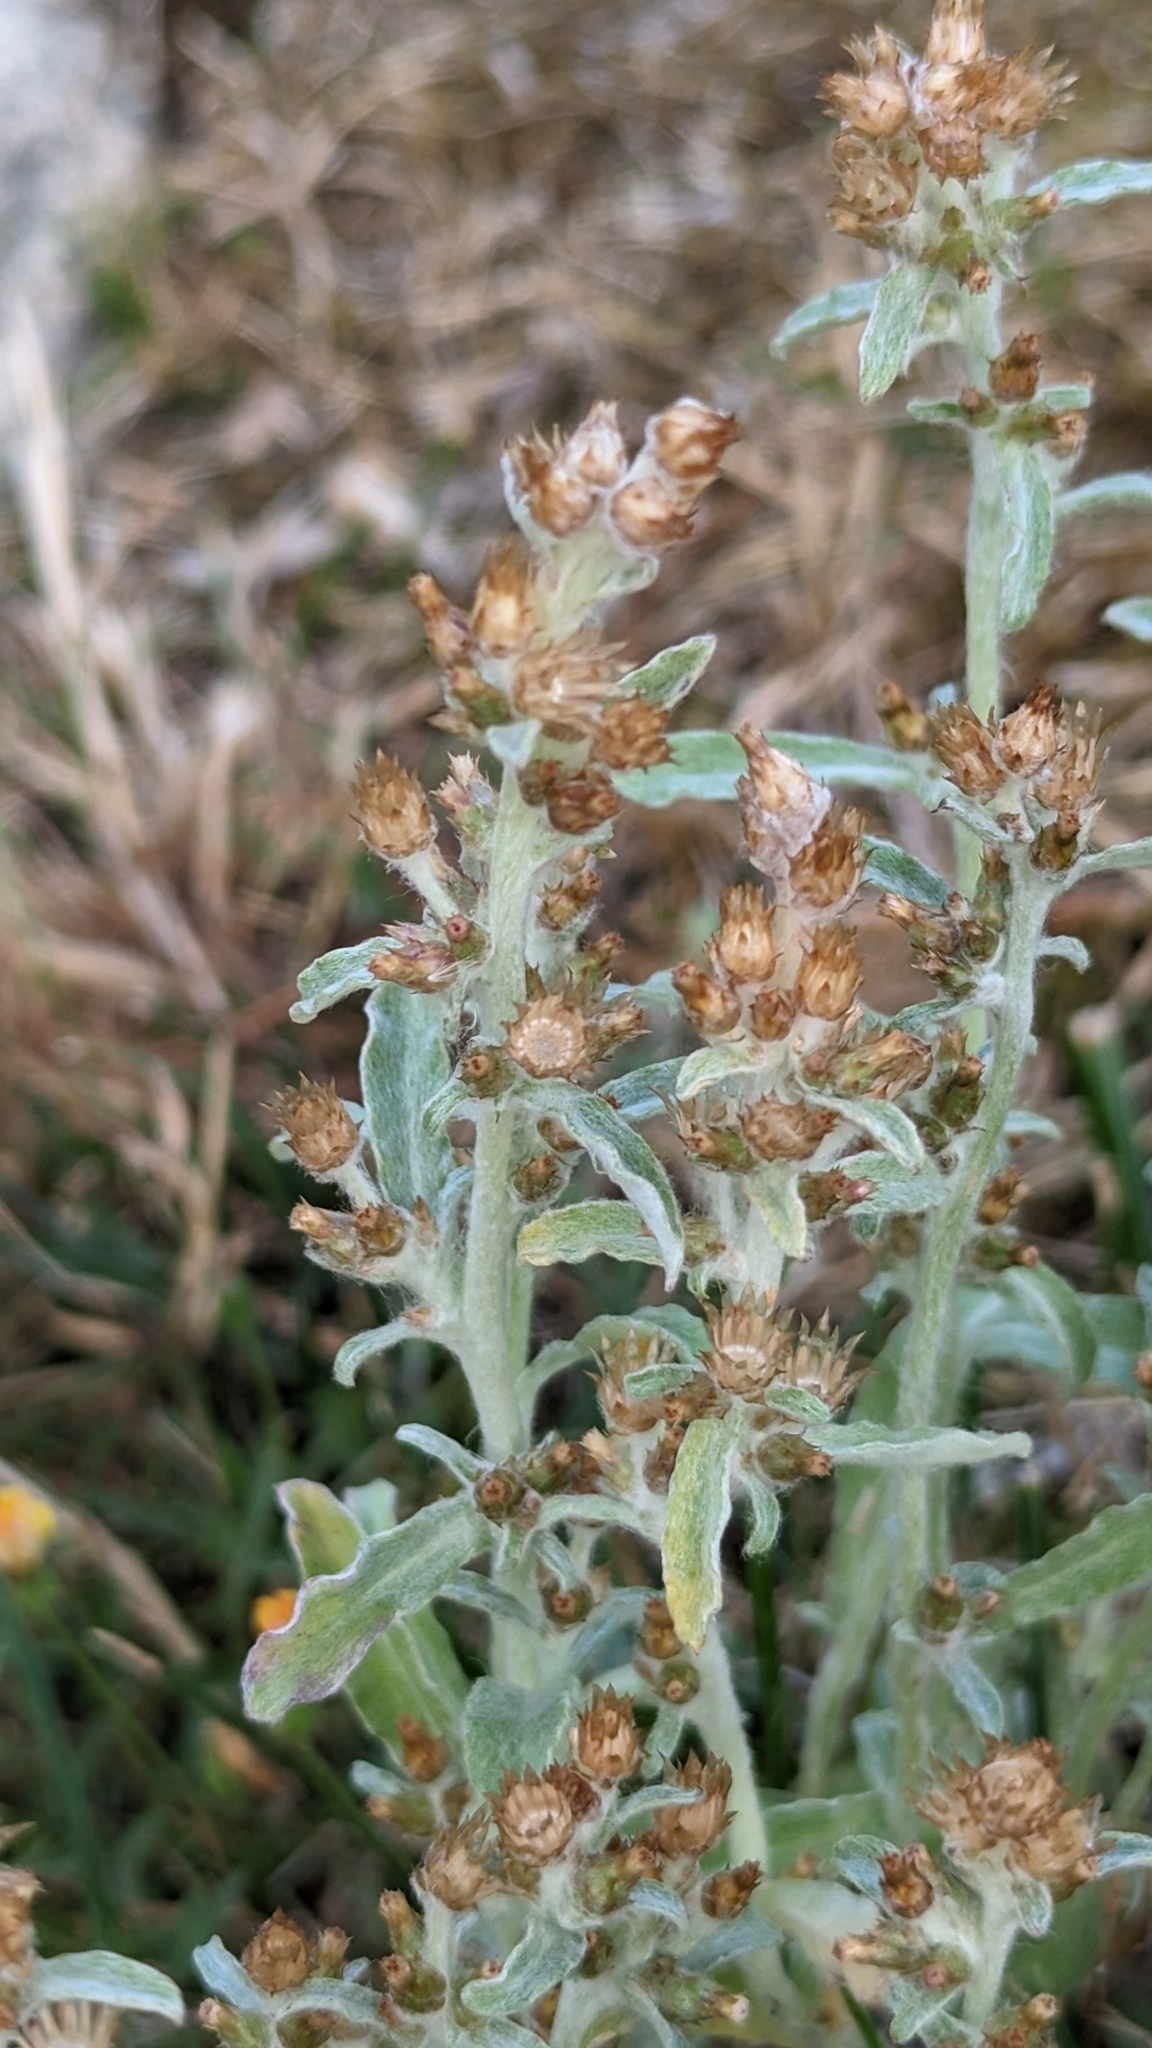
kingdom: Plantae
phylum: Tracheophyta
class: Magnoliopsida
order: Asterales
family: Asteraceae
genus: Gamochaeta
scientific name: Gamochaeta ustulata
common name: Pacific cudweed
